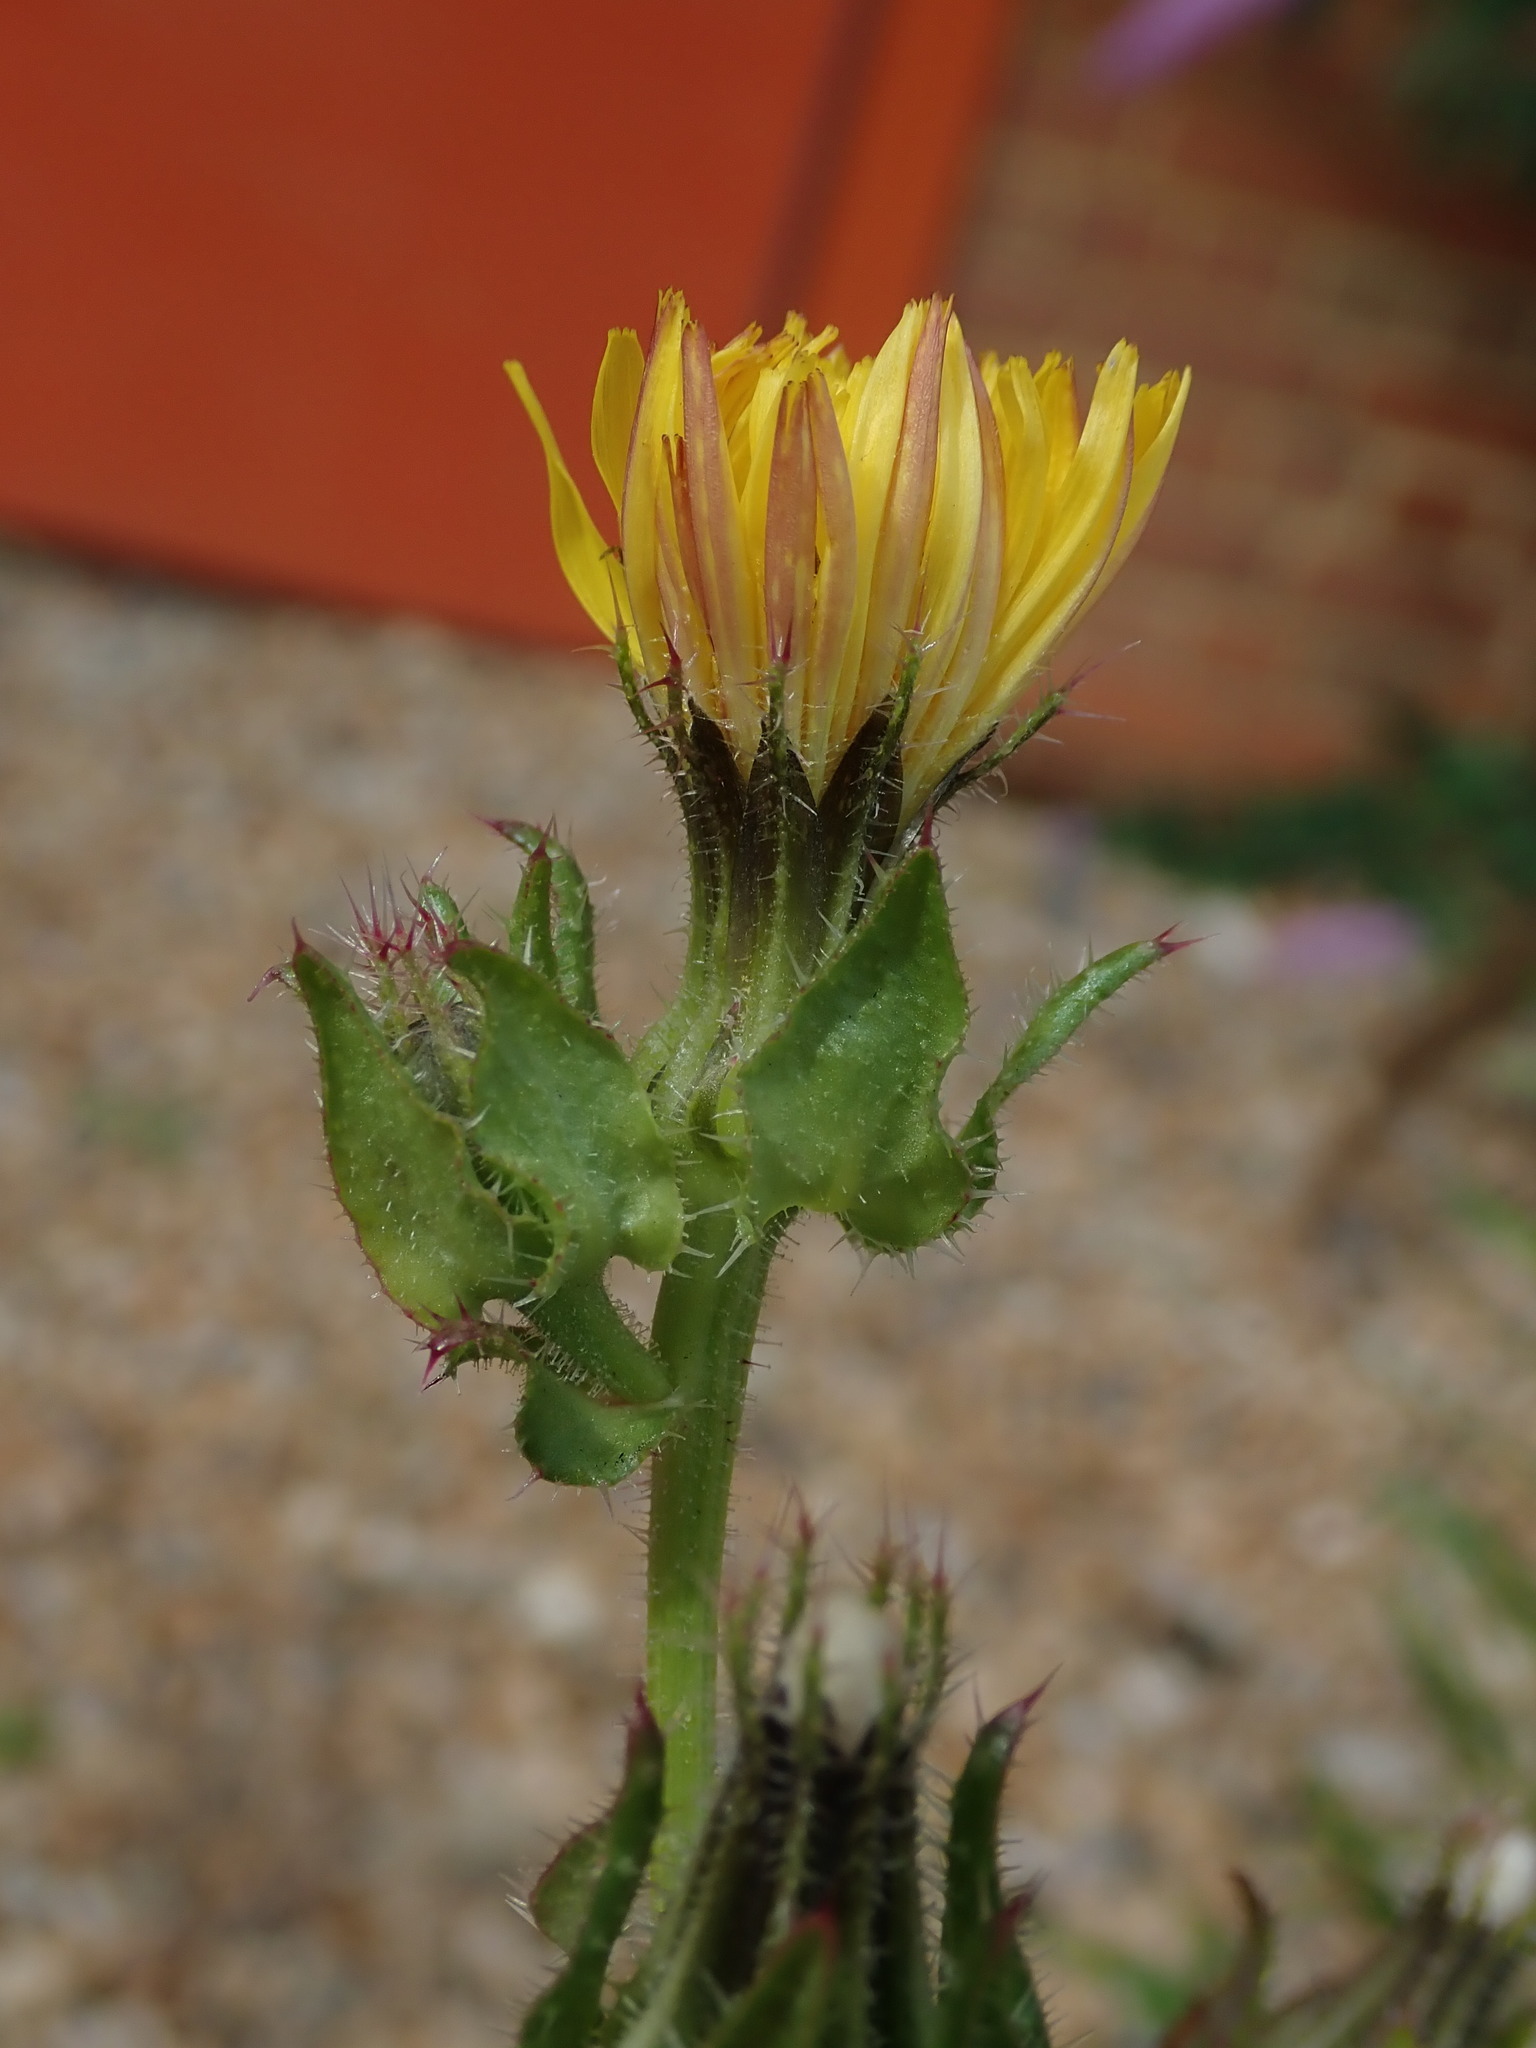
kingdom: Plantae
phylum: Tracheophyta
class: Magnoliopsida
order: Asterales
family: Asteraceae
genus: Helminthotheca
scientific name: Helminthotheca echioides
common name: Ox-tongue
